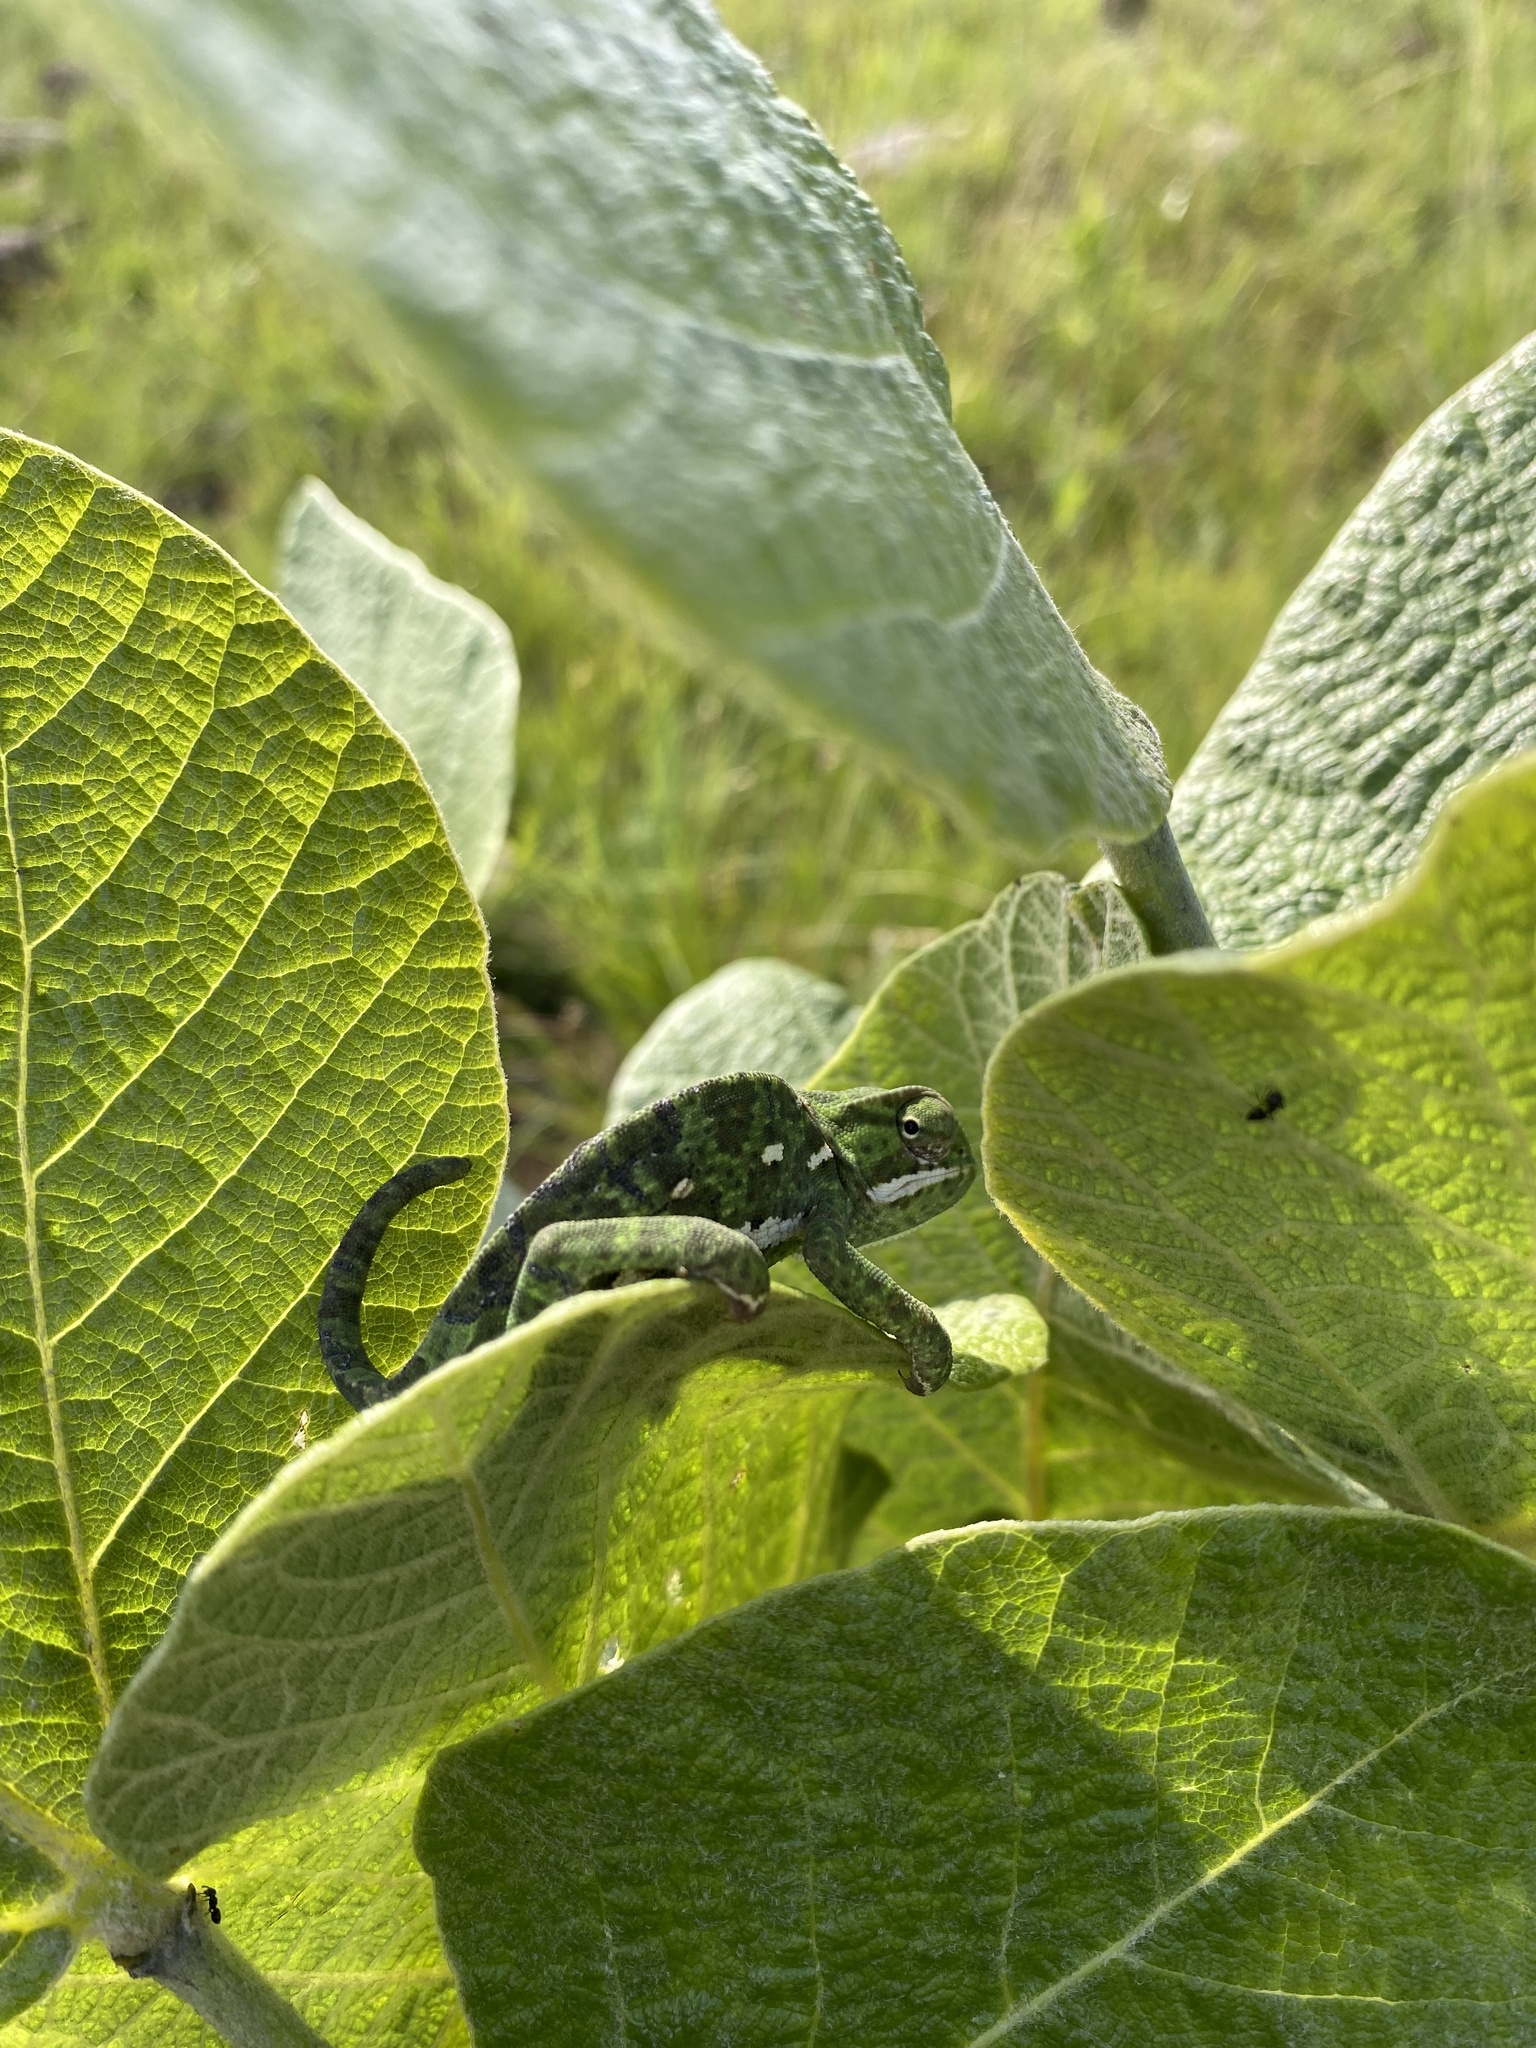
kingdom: Animalia
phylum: Chordata
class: Squamata
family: Chamaeleonidae
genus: Chamaeleo
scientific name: Chamaeleo dilepis
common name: Flapneck chameleon
